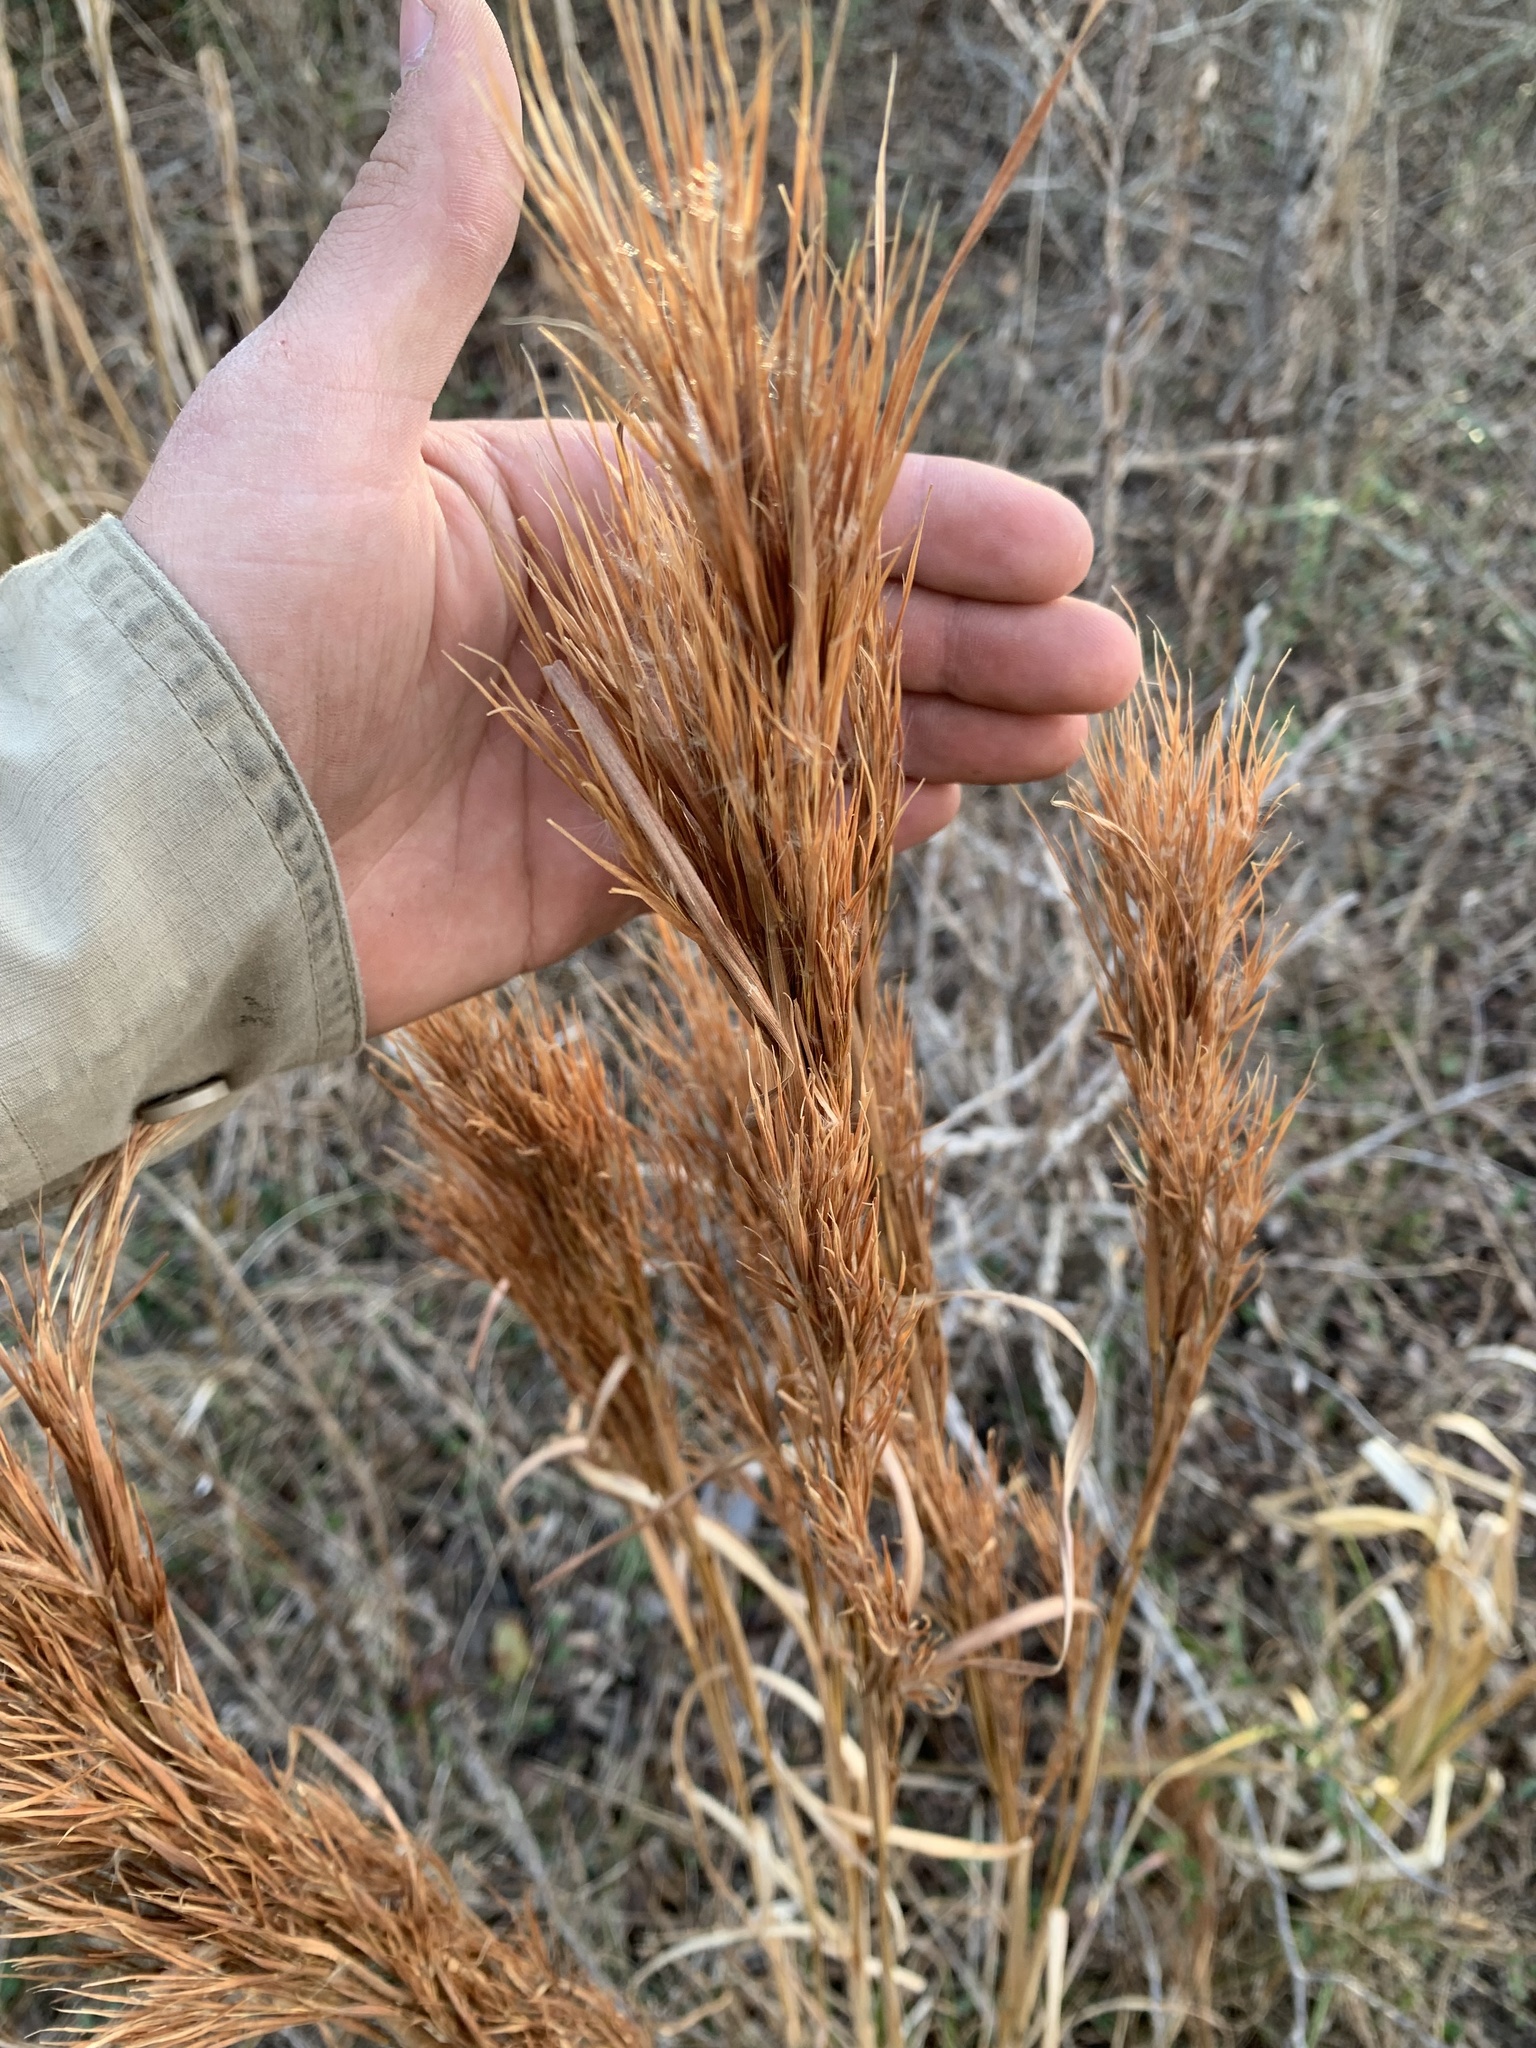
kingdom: Plantae
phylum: Tracheophyta
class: Liliopsida
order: Poales
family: Poaceae
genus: Andropogon
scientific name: Andropogon tenuispatheus
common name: Bushy bluestem
